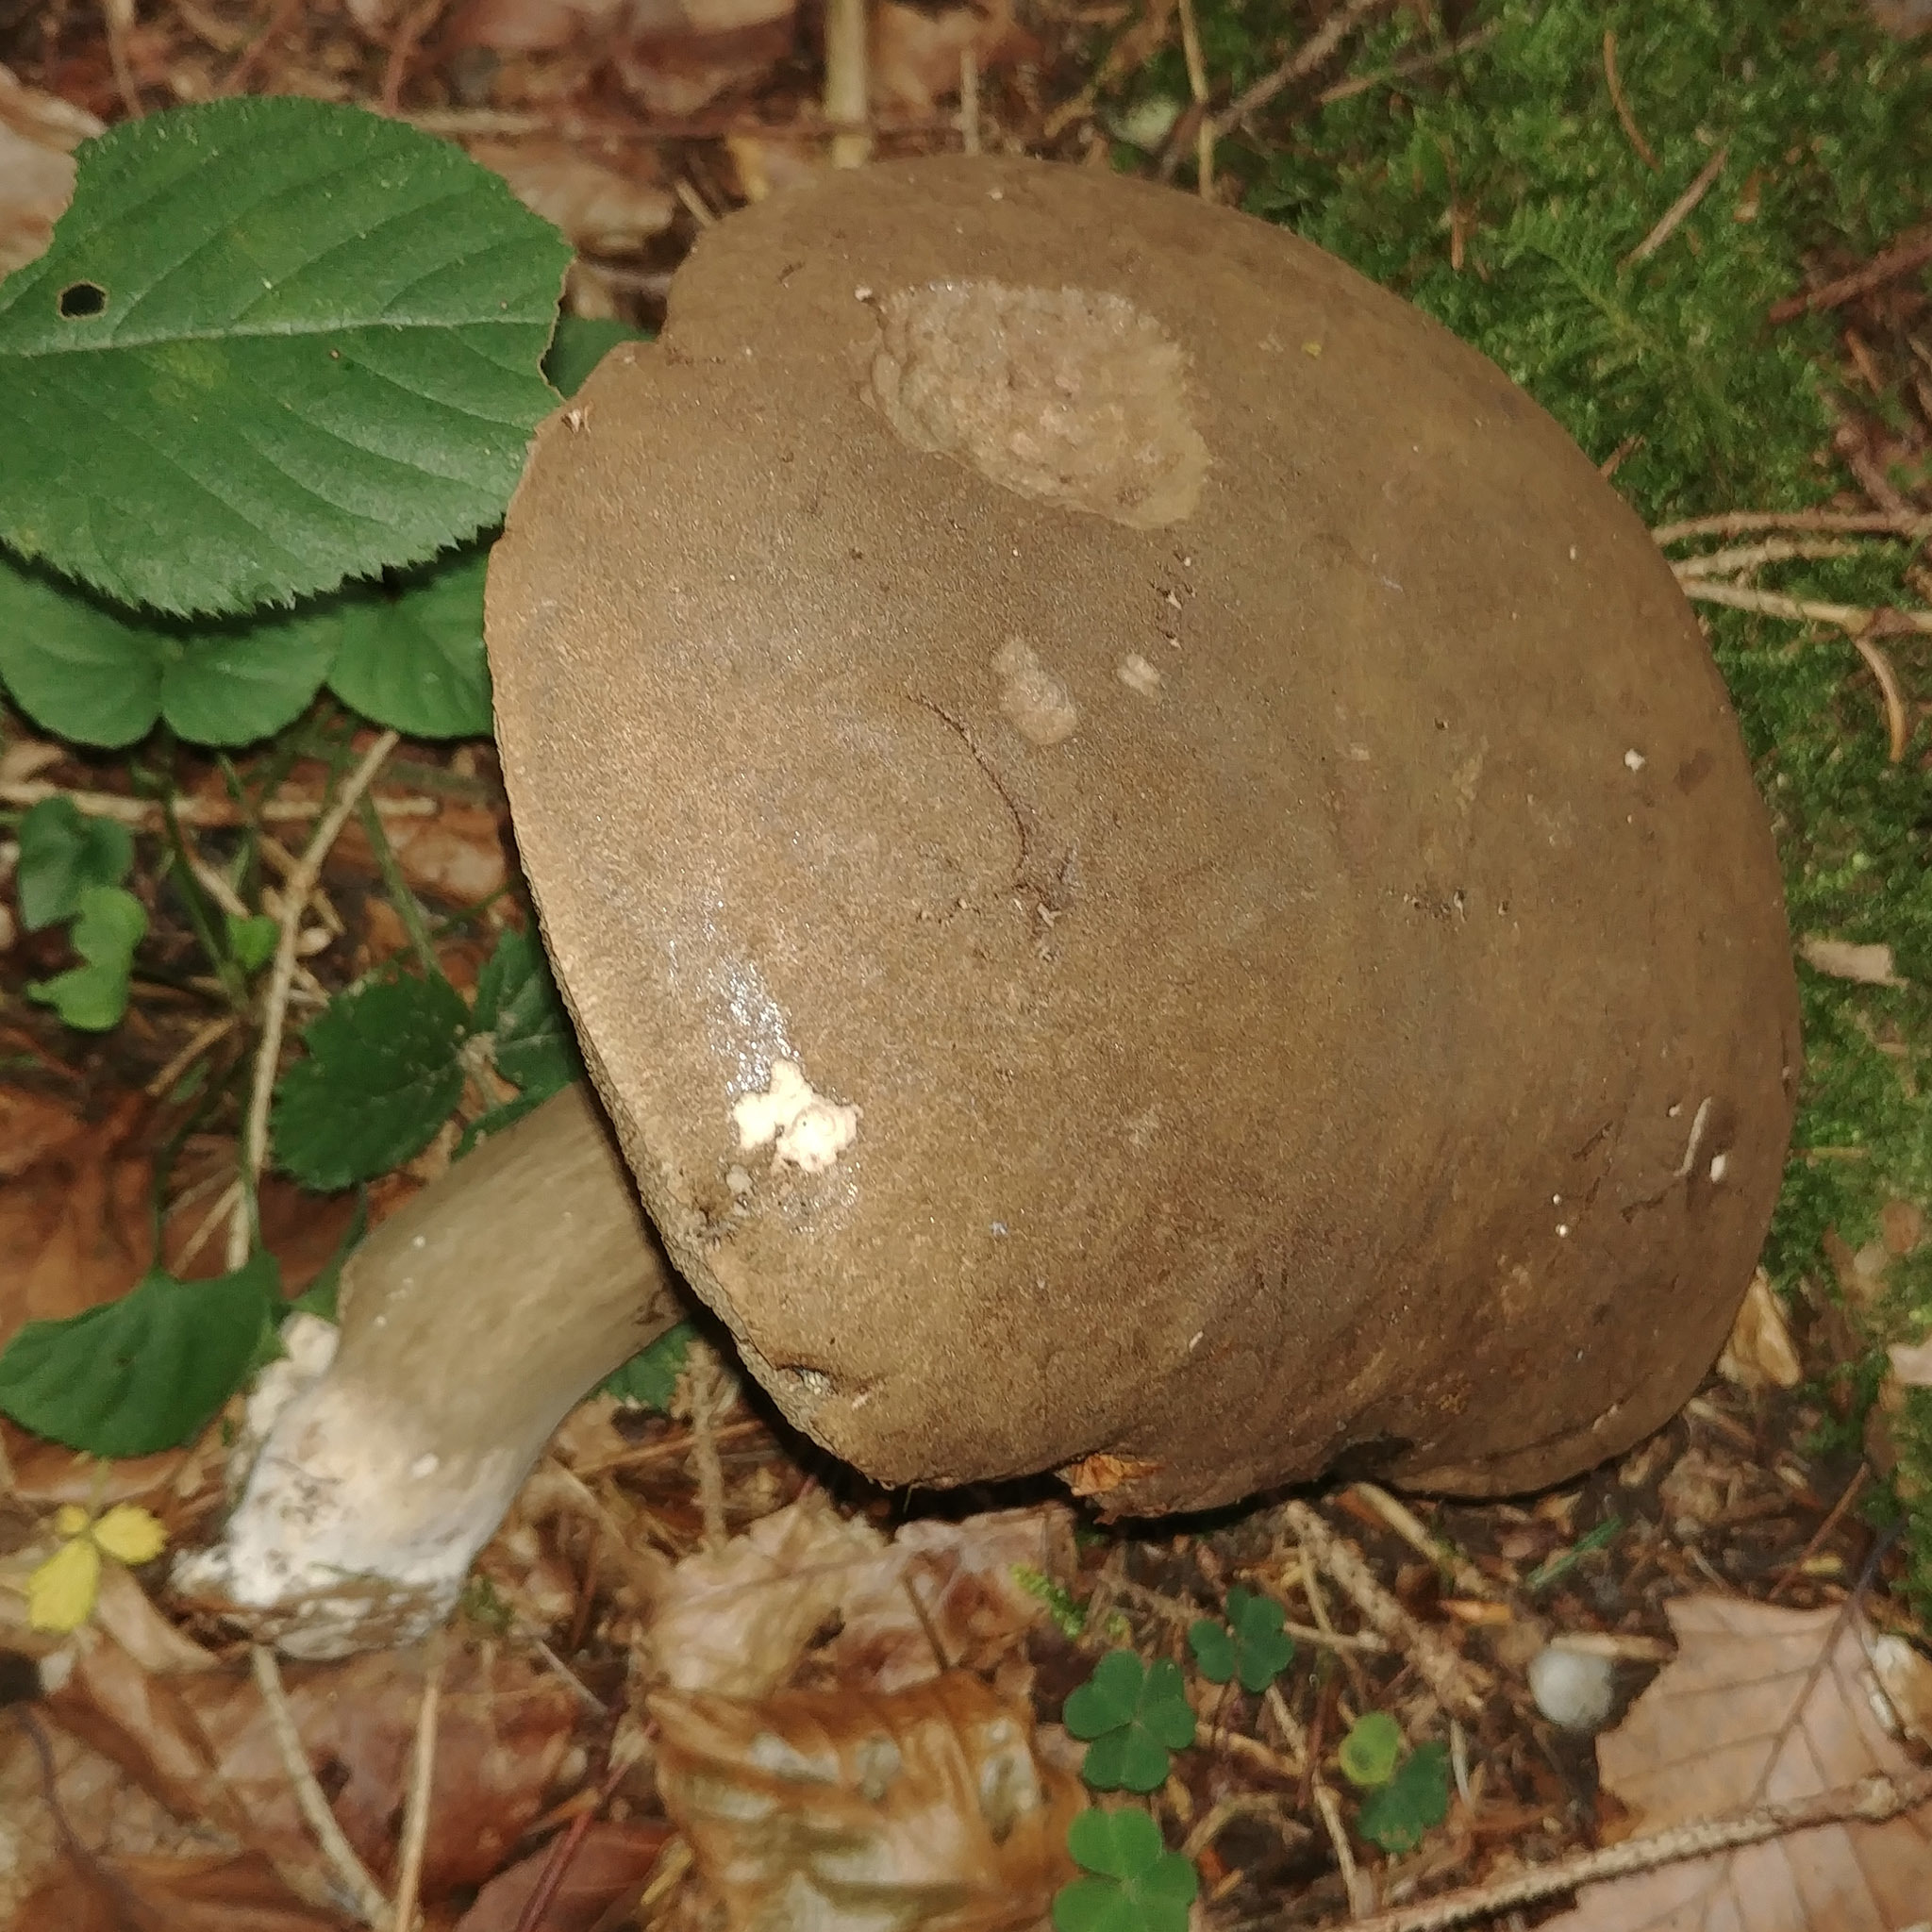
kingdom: Fungi
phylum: Basidiomycota
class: Agaricomycetes
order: Boletales
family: Boletaceae
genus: Porphyrellus
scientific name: Porphyrellus porphyrosporus
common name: Dusky bolete
